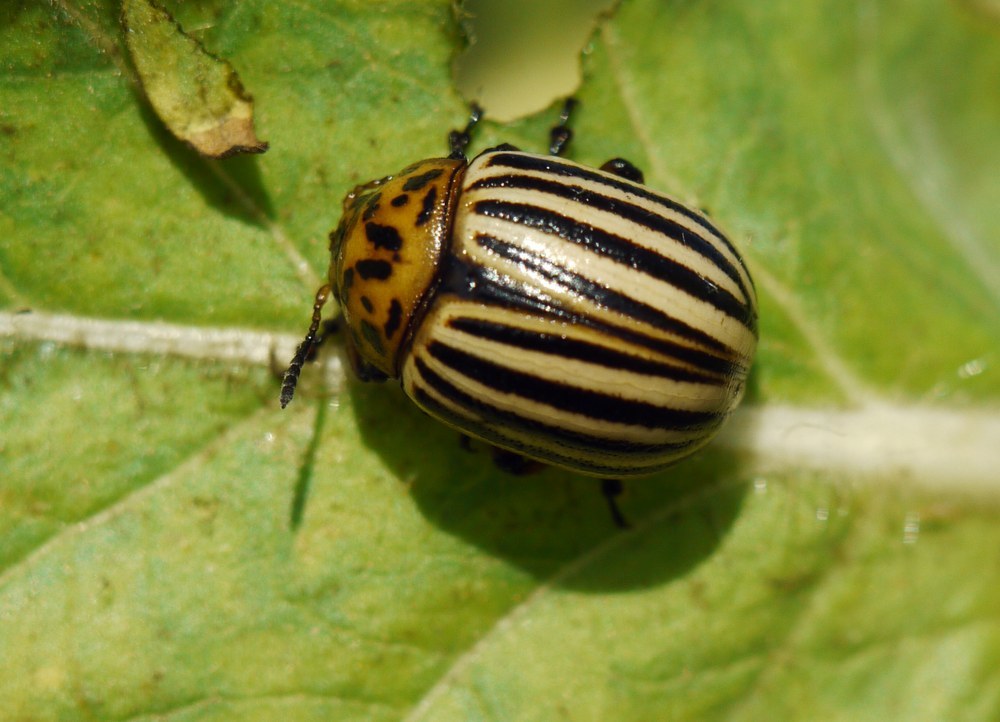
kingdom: Animalia
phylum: Arthropoda
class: Insecta
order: Coleoptera
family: Chrysomelidae
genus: Leptinotarsa
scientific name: Leptinotarsa decemlineata
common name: Colorado potato beetle
